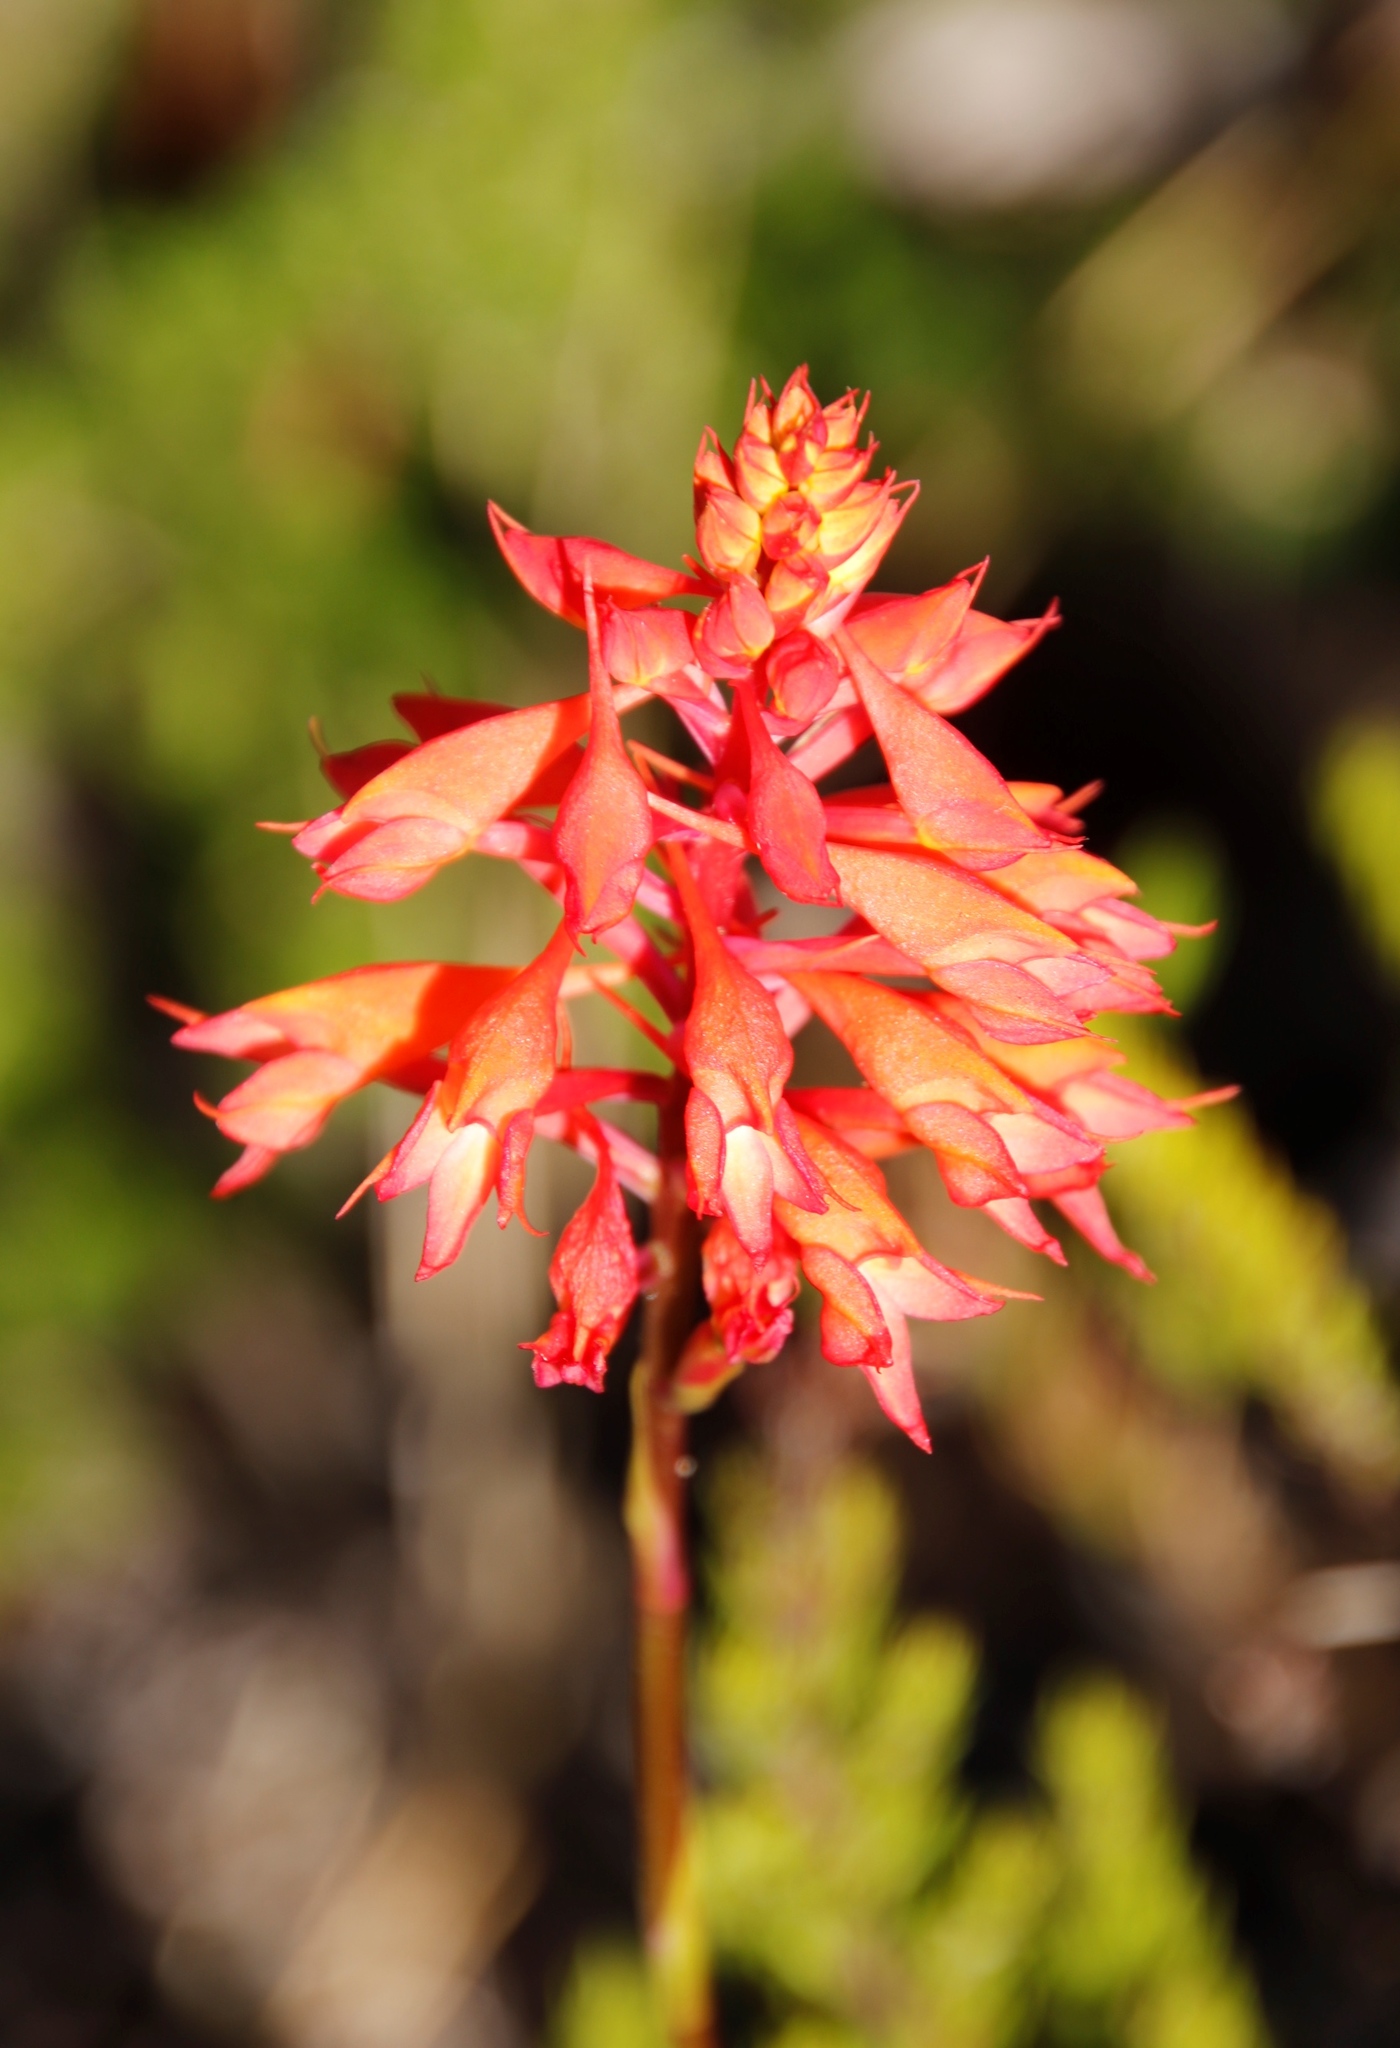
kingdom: Plantae
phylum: Tracheophyta
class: Liliopsida
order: Asparagales
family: Orchidaceae
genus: Disa
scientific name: Disa ferruginea
